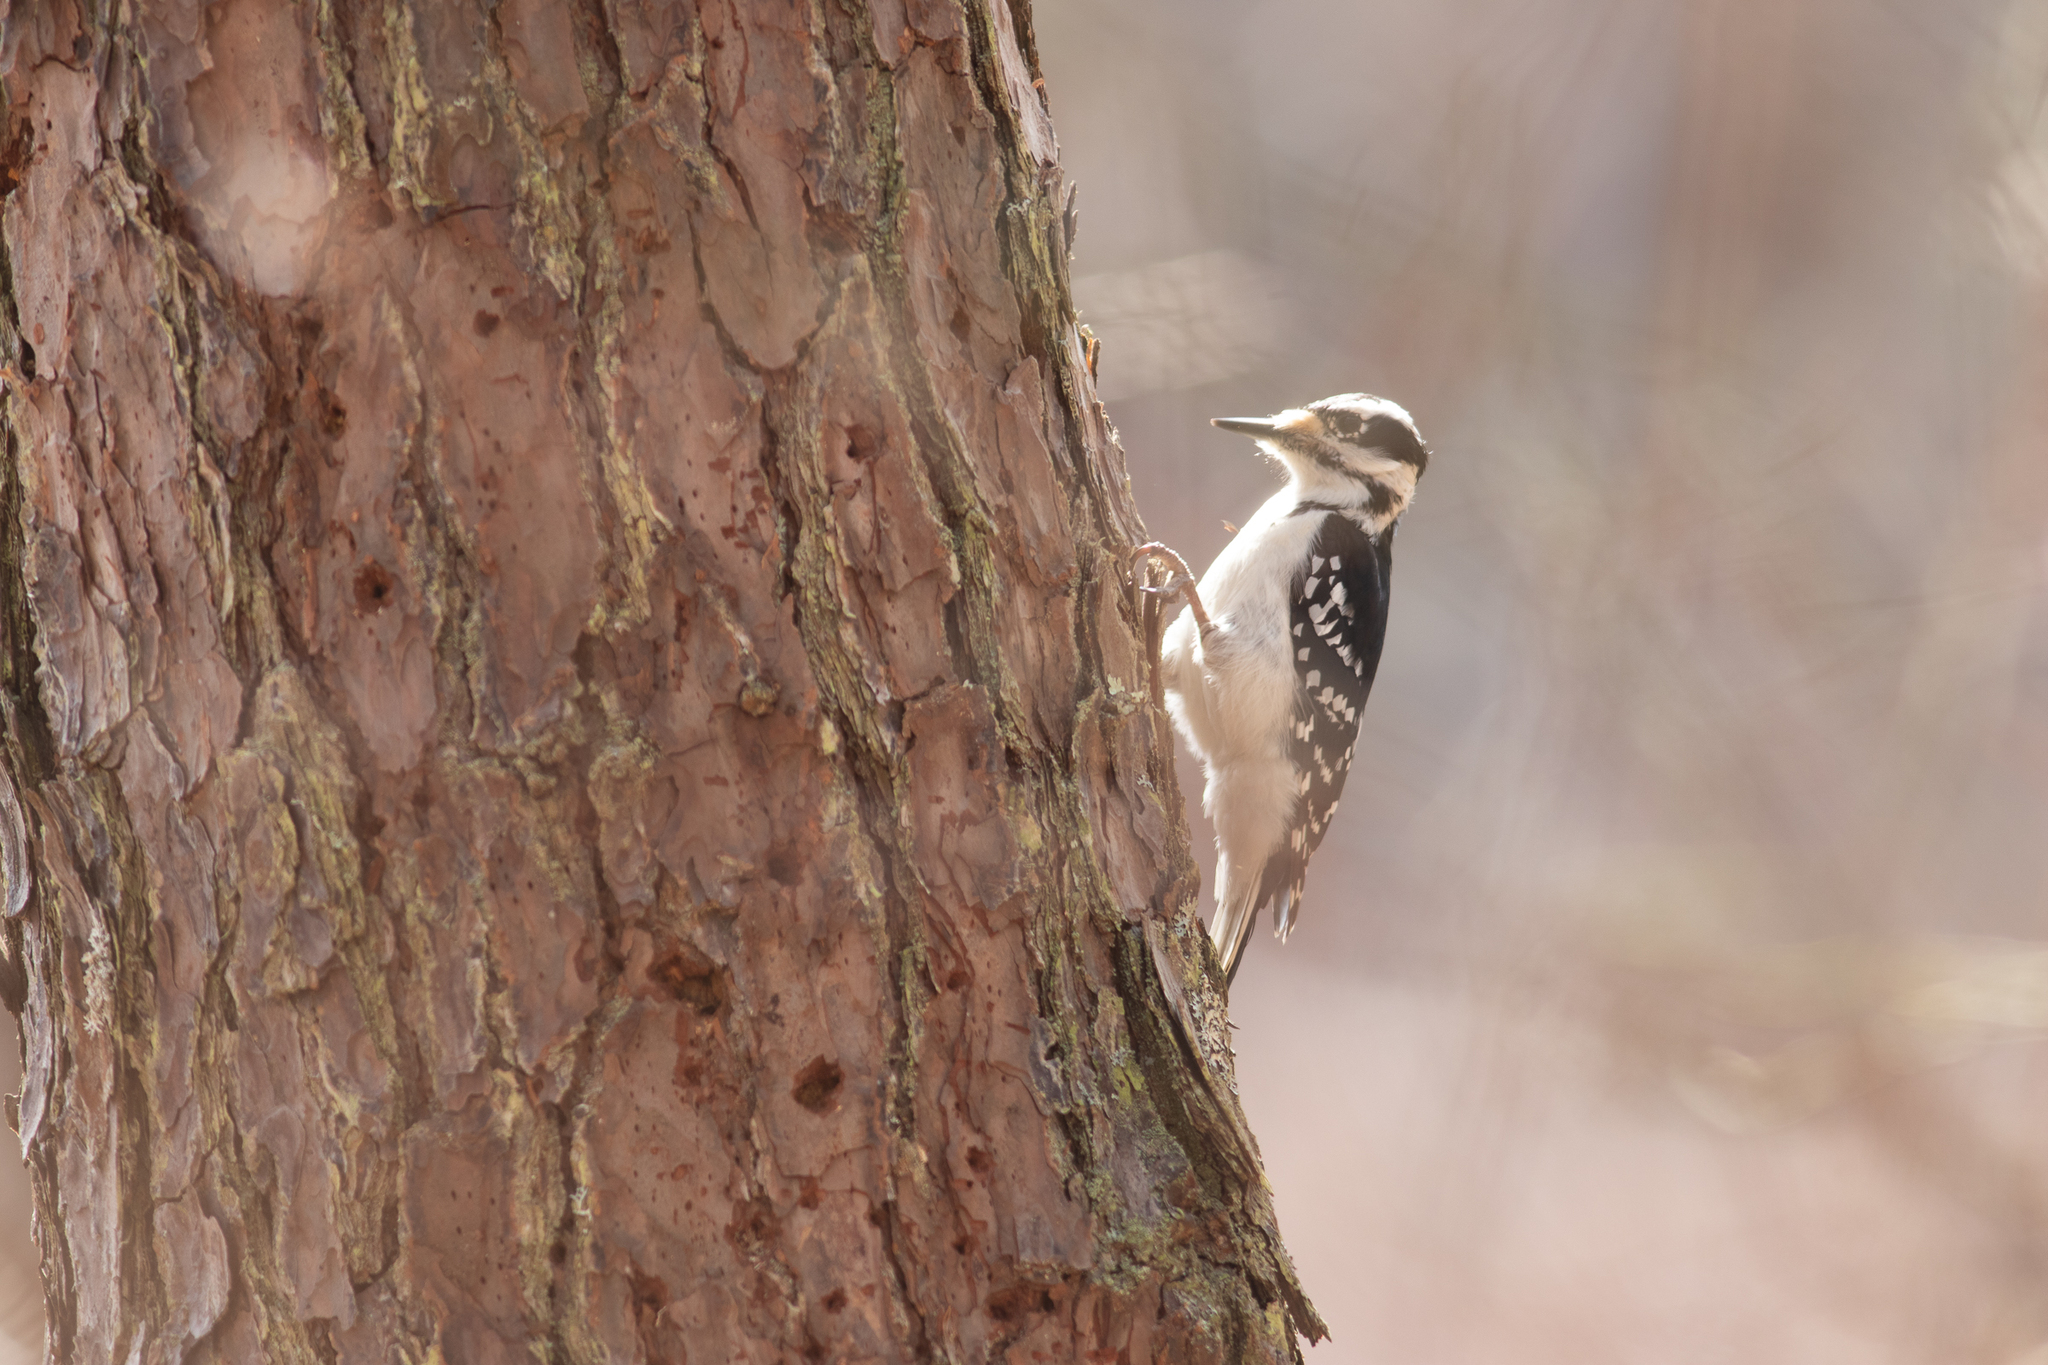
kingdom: Animalia
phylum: Chordata
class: Aves
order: Piciformes
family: Picidae
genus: Leuconotopicus
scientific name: Leuconotopicus villosus
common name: Hairy woodpecker
